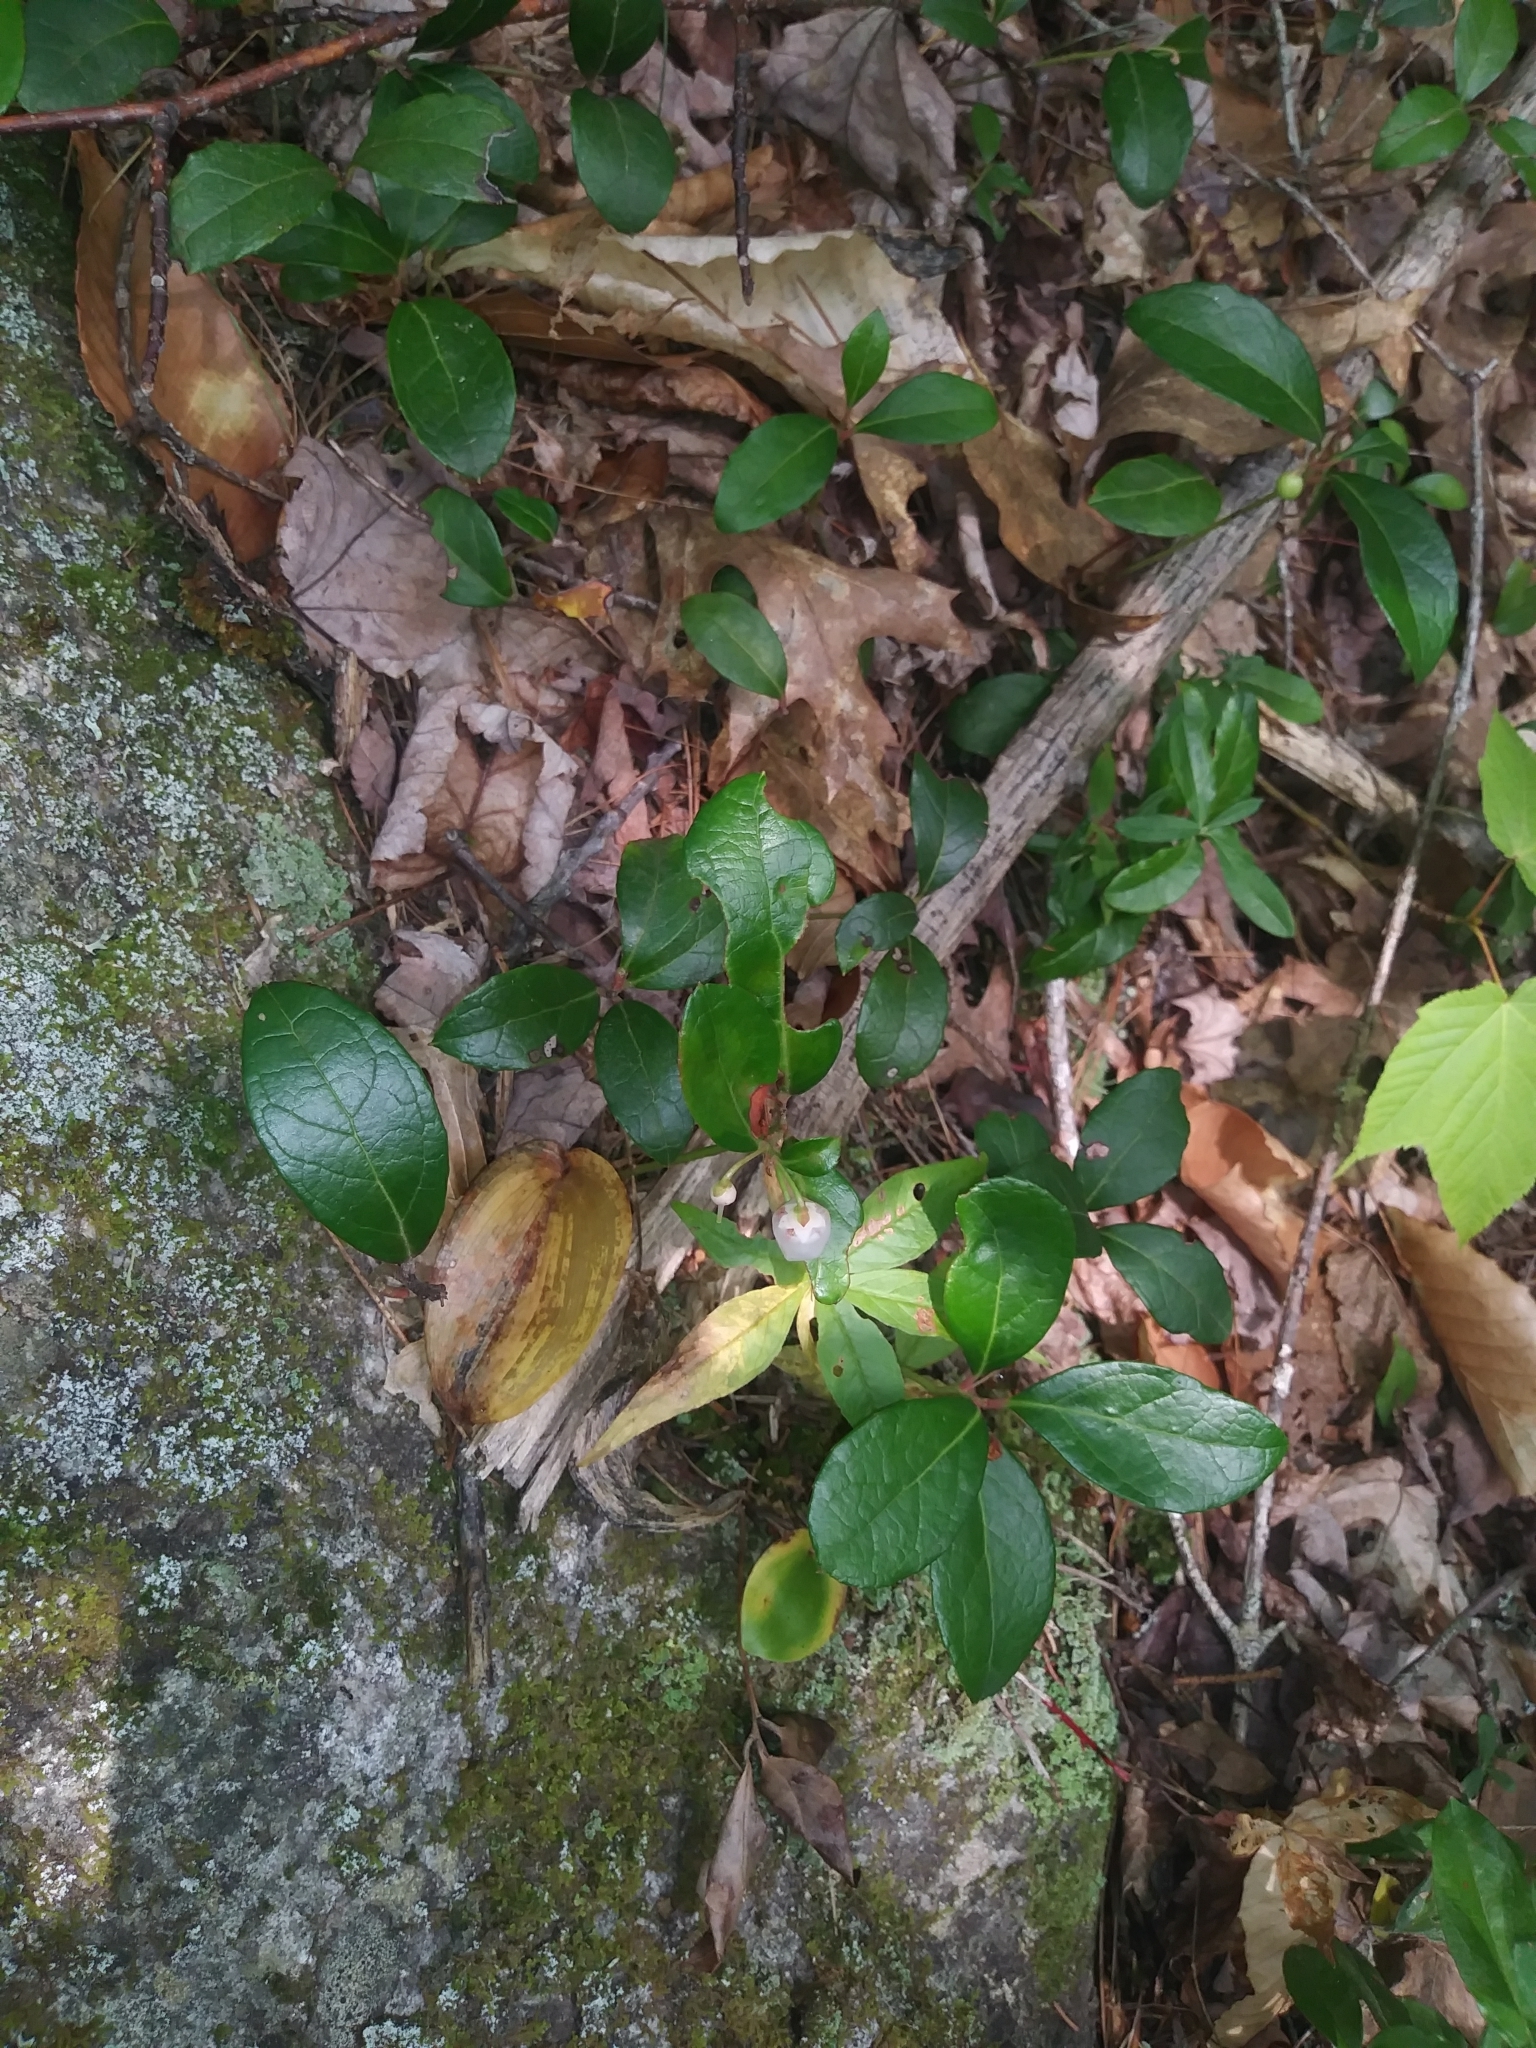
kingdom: Plantae
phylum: Tracheophyta
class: Magnoliopsida
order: Ericales
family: Ericaceae
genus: Gaultheria
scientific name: Gaultheria procumbens
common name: Checkerberry
